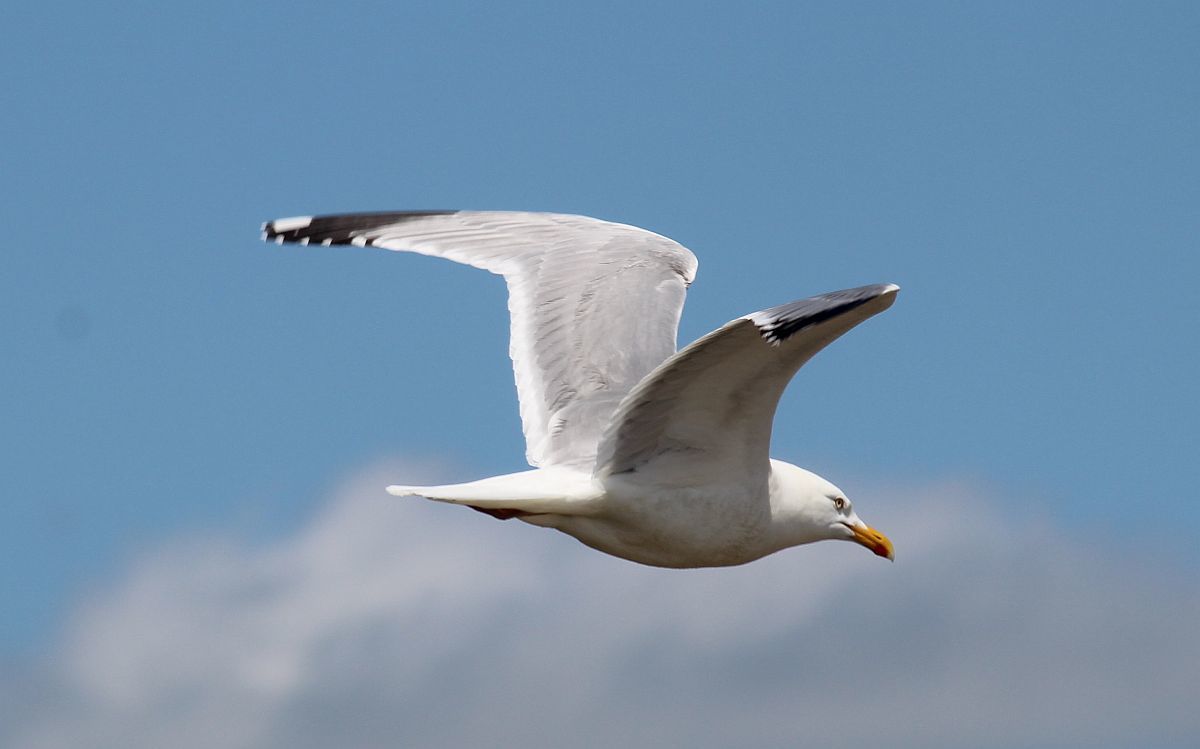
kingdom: Animalia
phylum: Chordata
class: Aves
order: Charadriiformes
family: Laridae
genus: Larus
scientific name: Larus argentatus
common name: Herring gull
